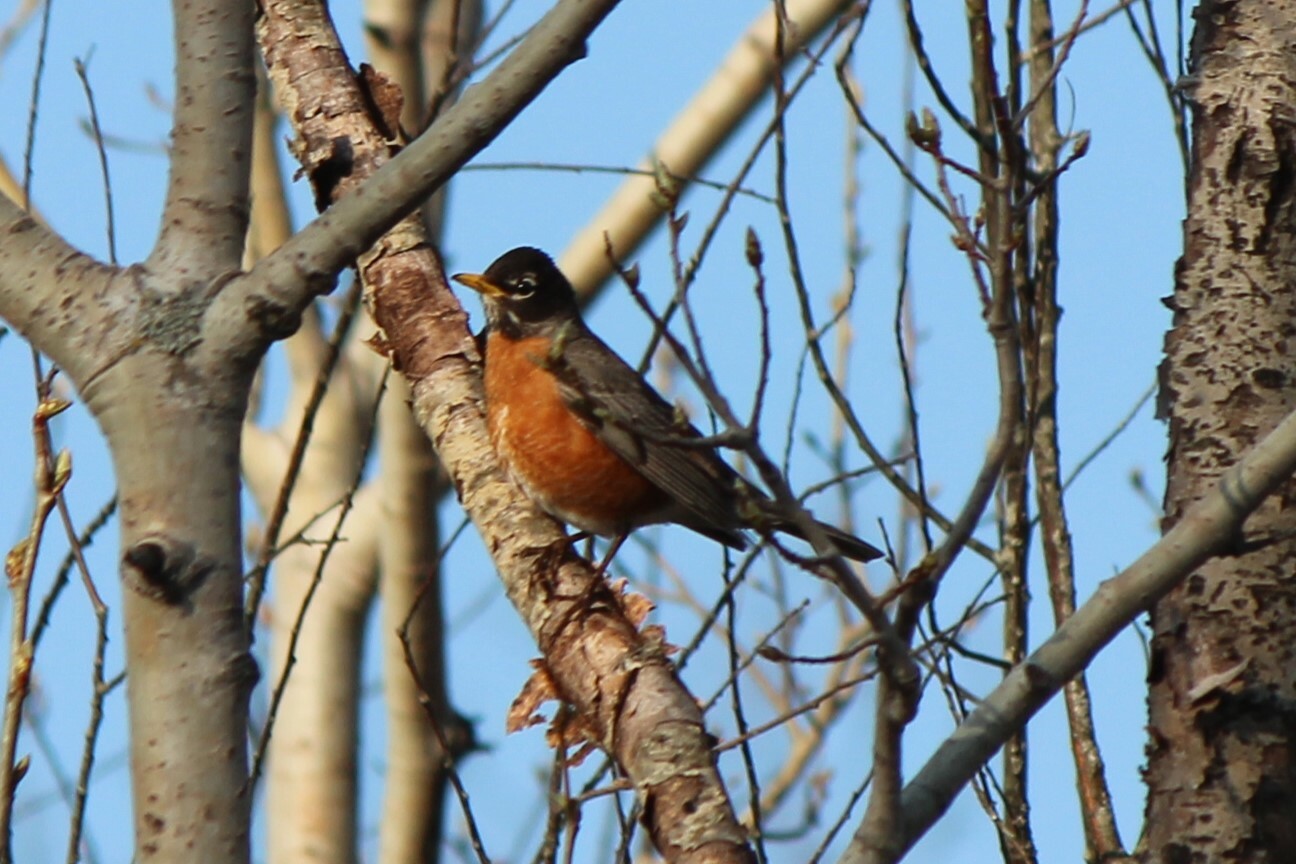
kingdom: Animalia
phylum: Chordata
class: Aves
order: Passeriformes
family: Turdidae
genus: Turdus
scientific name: Turdus migratorius
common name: American robin
